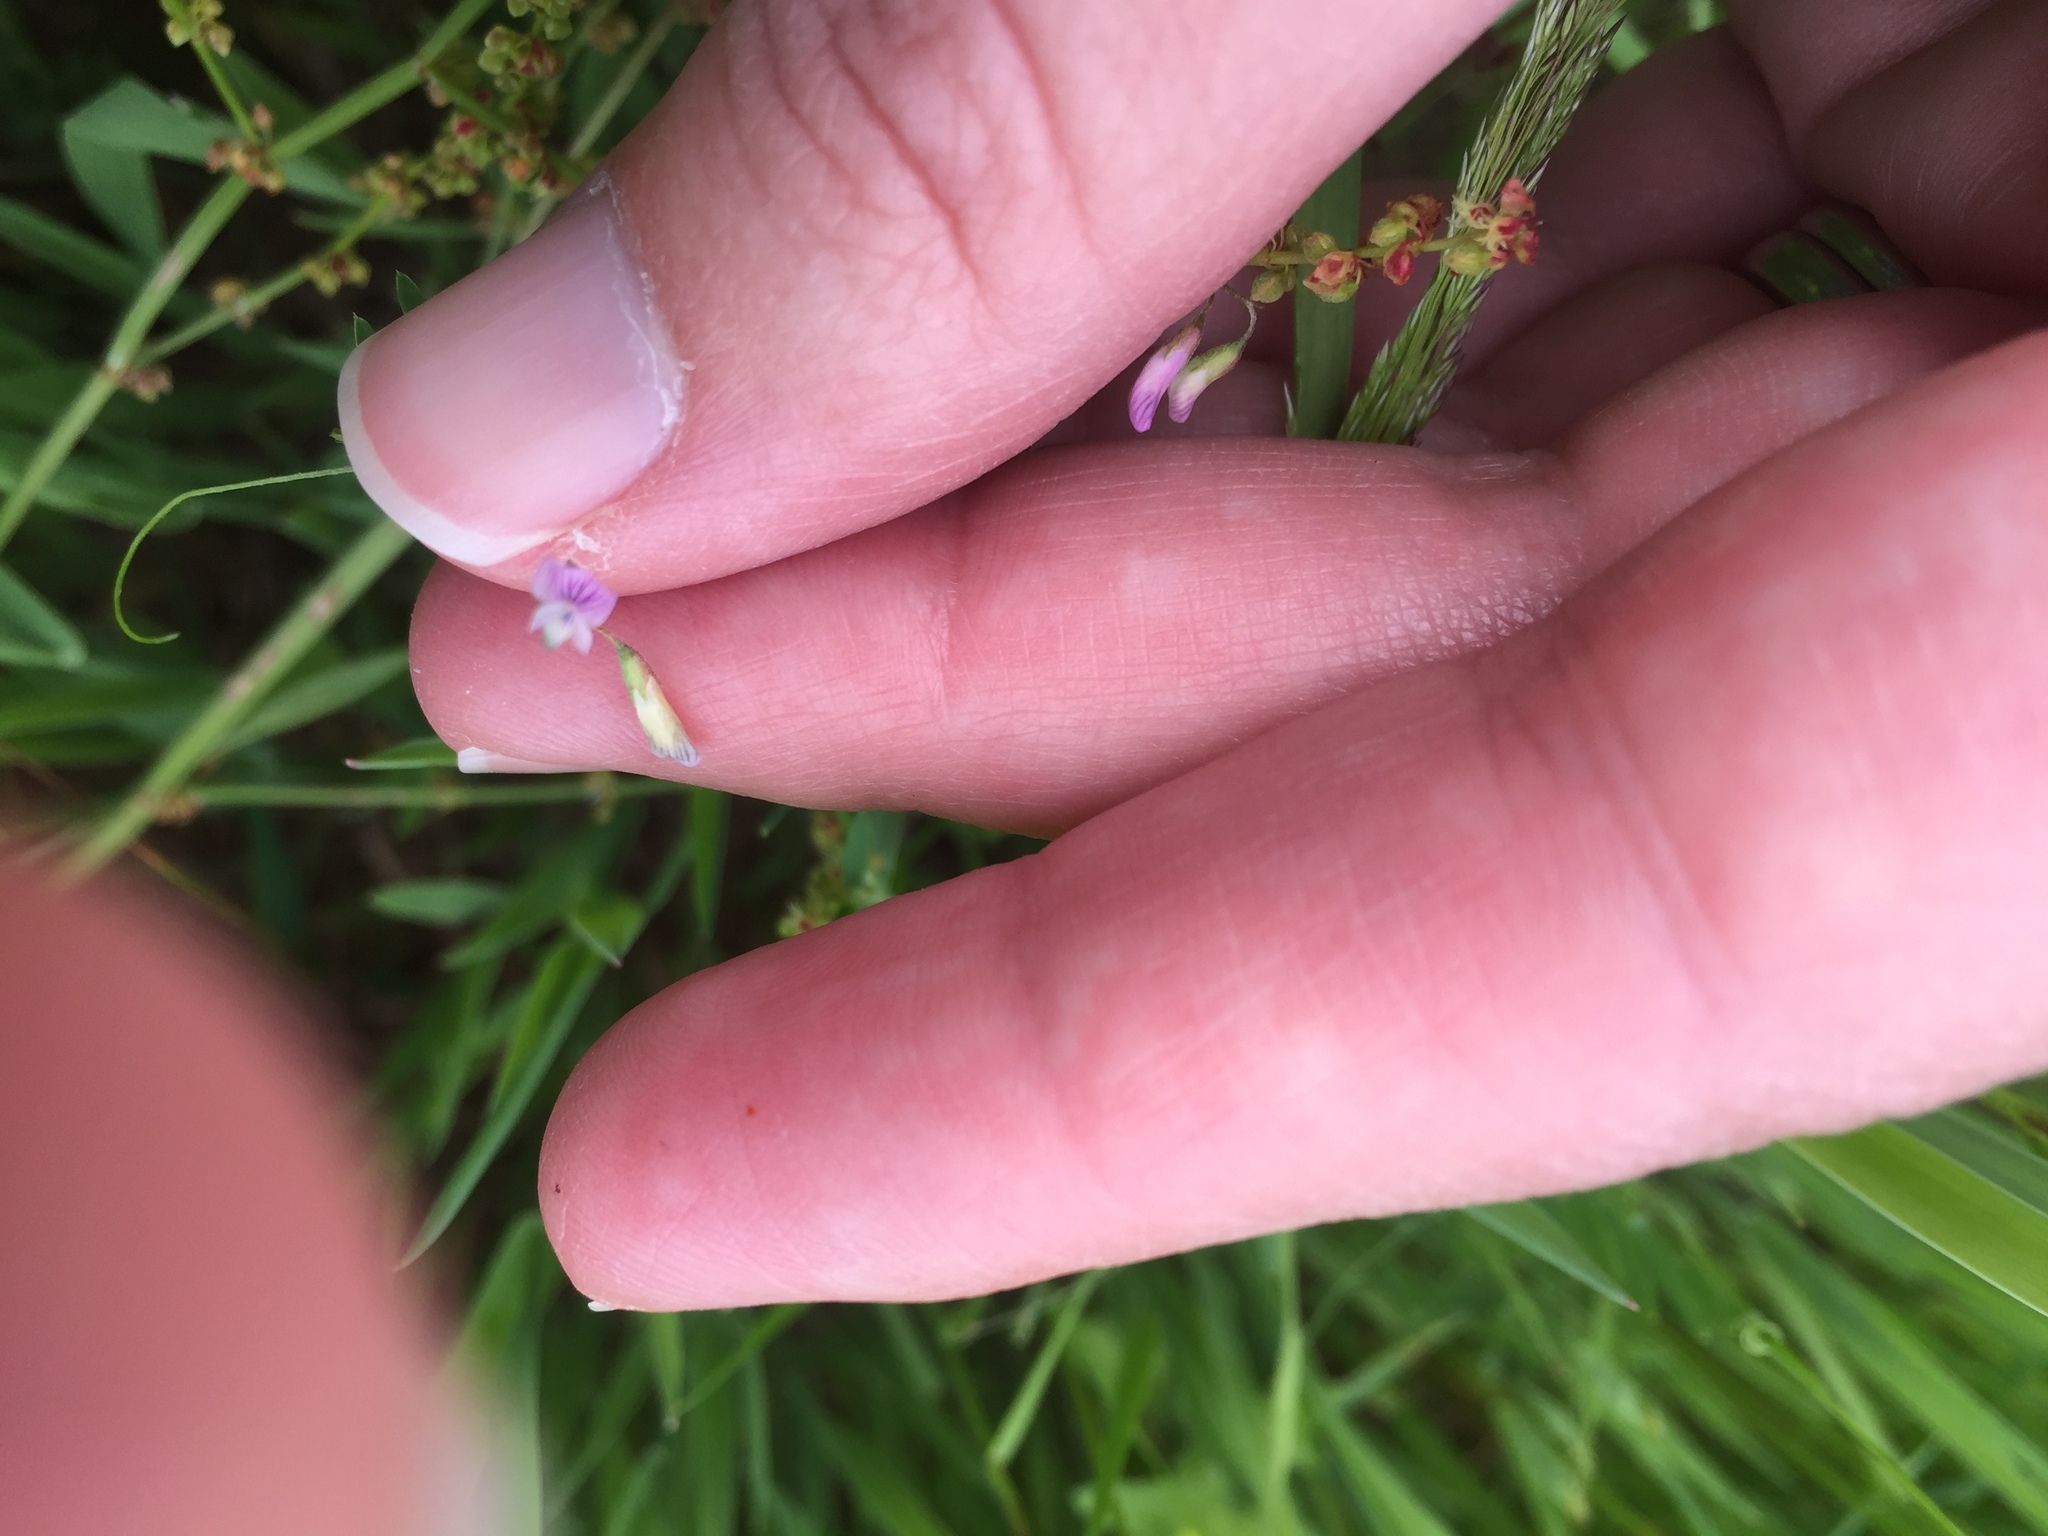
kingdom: Plantae
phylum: Tracheophyta
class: Magnoliopsida
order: Fabales
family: Fabaceae
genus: Vicia
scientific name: Vicia tetrasperma
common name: Smooth tare
